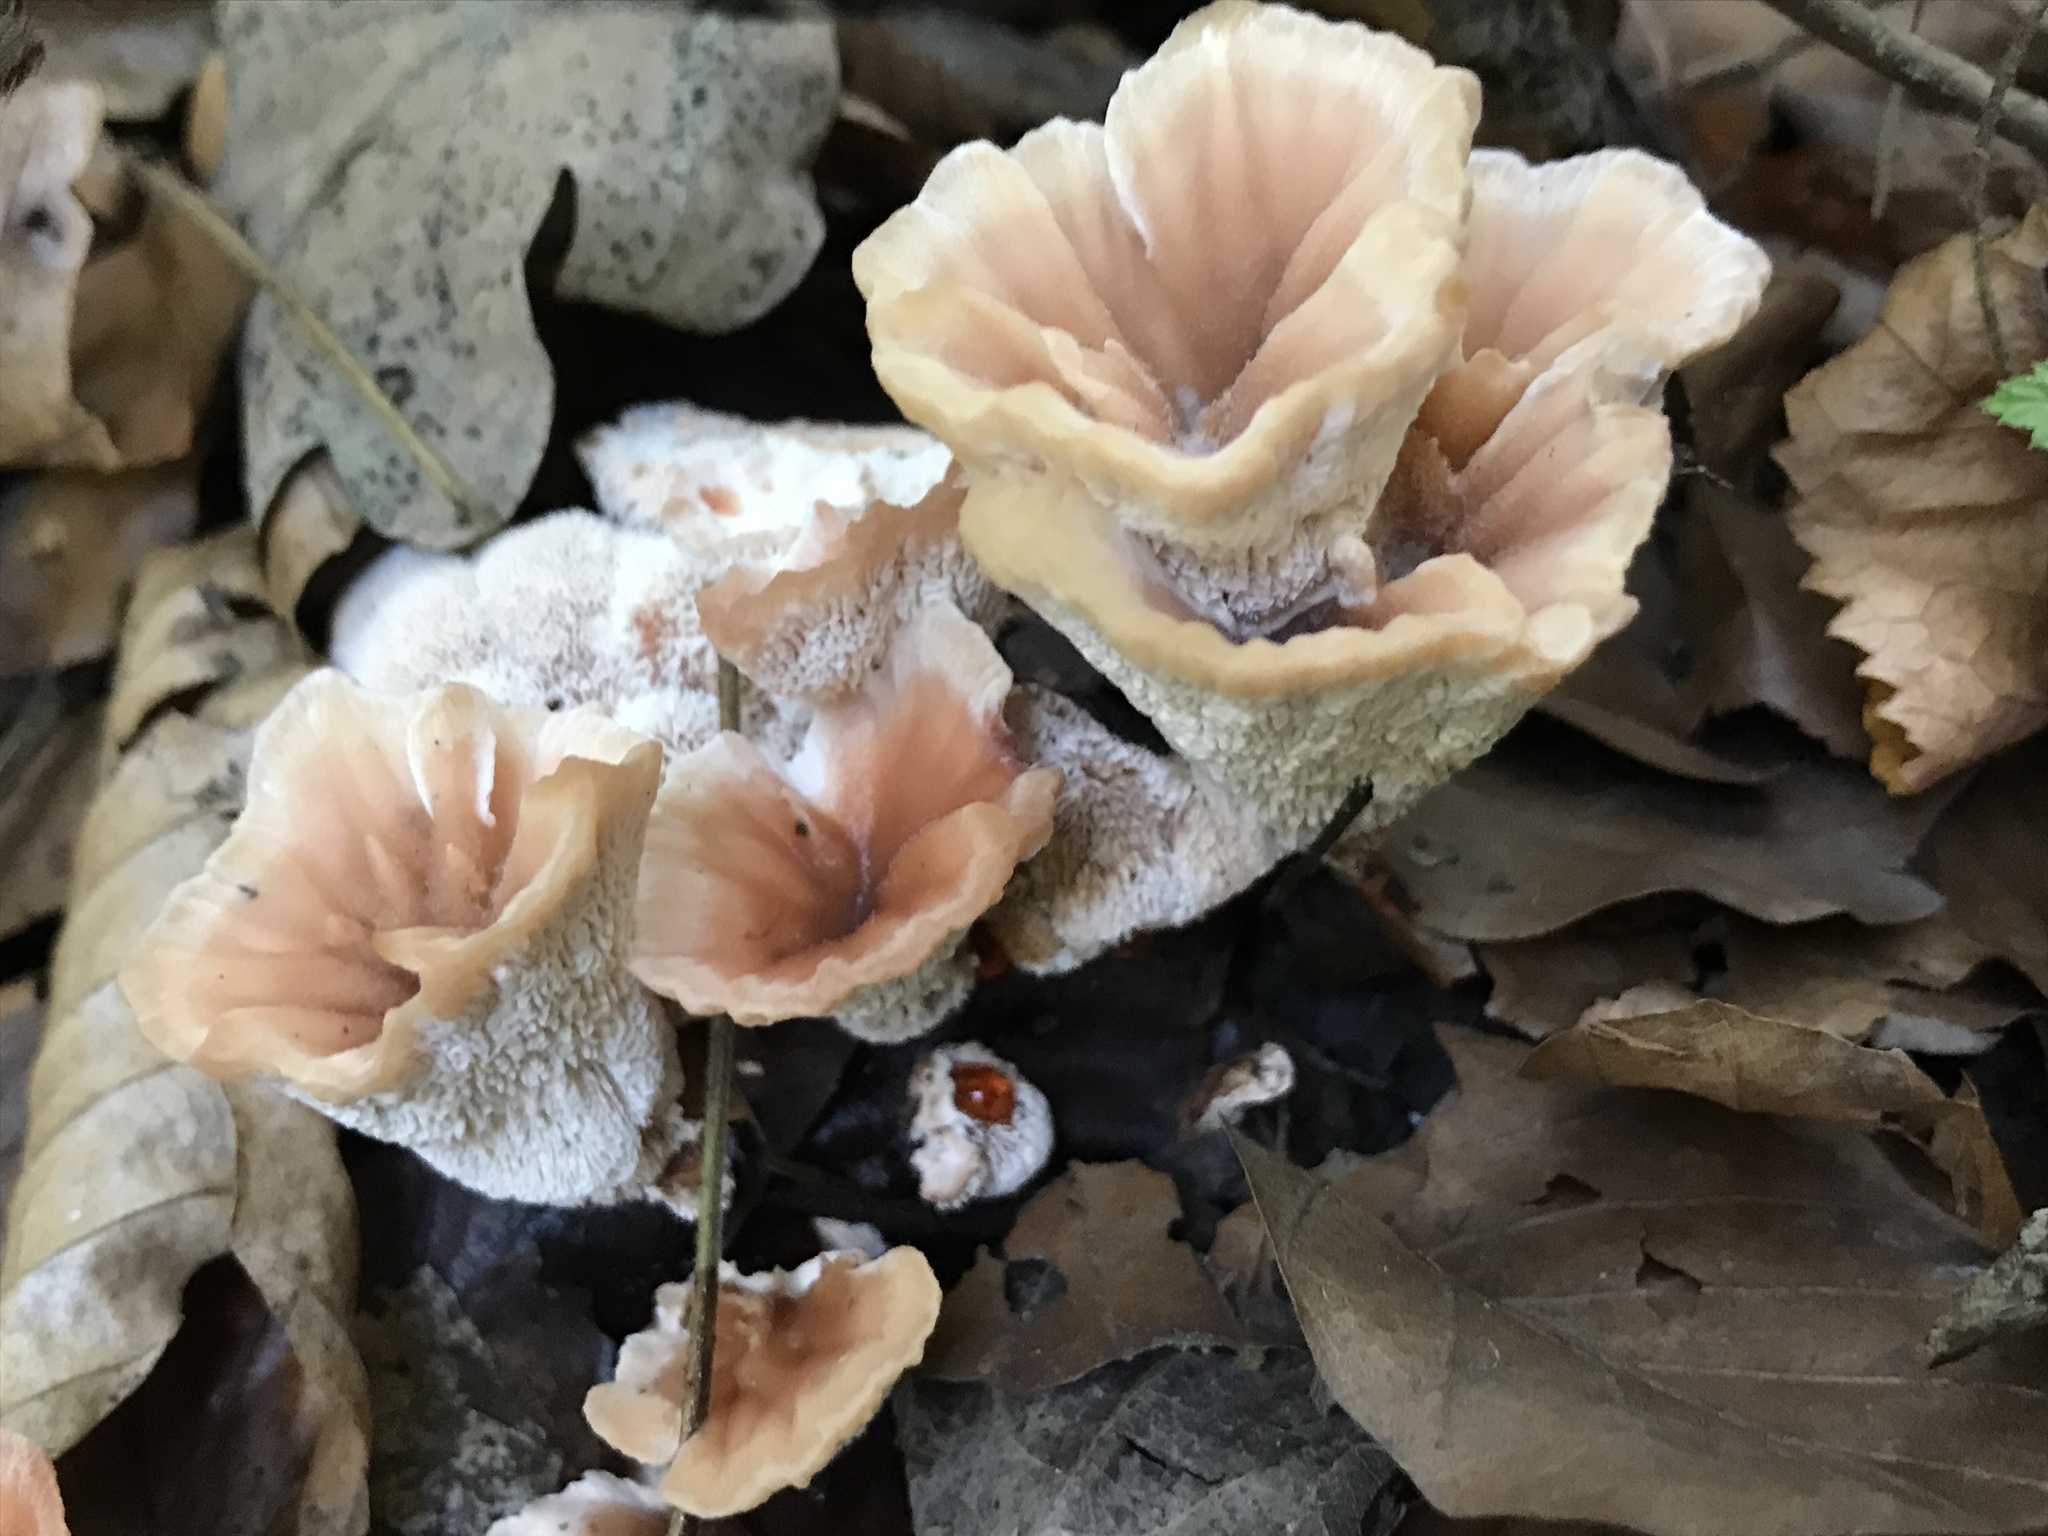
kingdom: Fungi
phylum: Basidiomycota
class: Agaricomycetes
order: Polyporales
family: Podoscyphaceae
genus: Abortiporus
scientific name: Abortiporus biennis
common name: Blushing rosette
